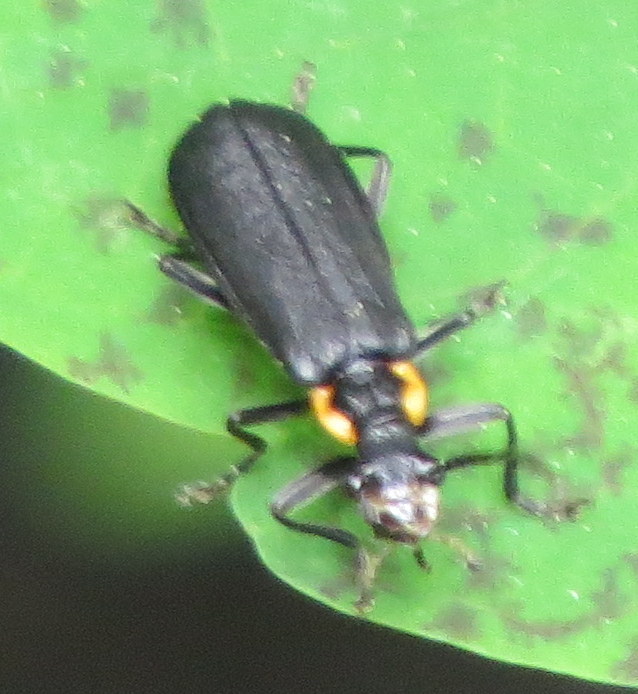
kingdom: Animalia
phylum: Arthropoda
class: Insecta
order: Coleoptera
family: Cantharidae
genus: Podabrus
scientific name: Podabrus rugosulus
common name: Wrinkled soldier beetle
